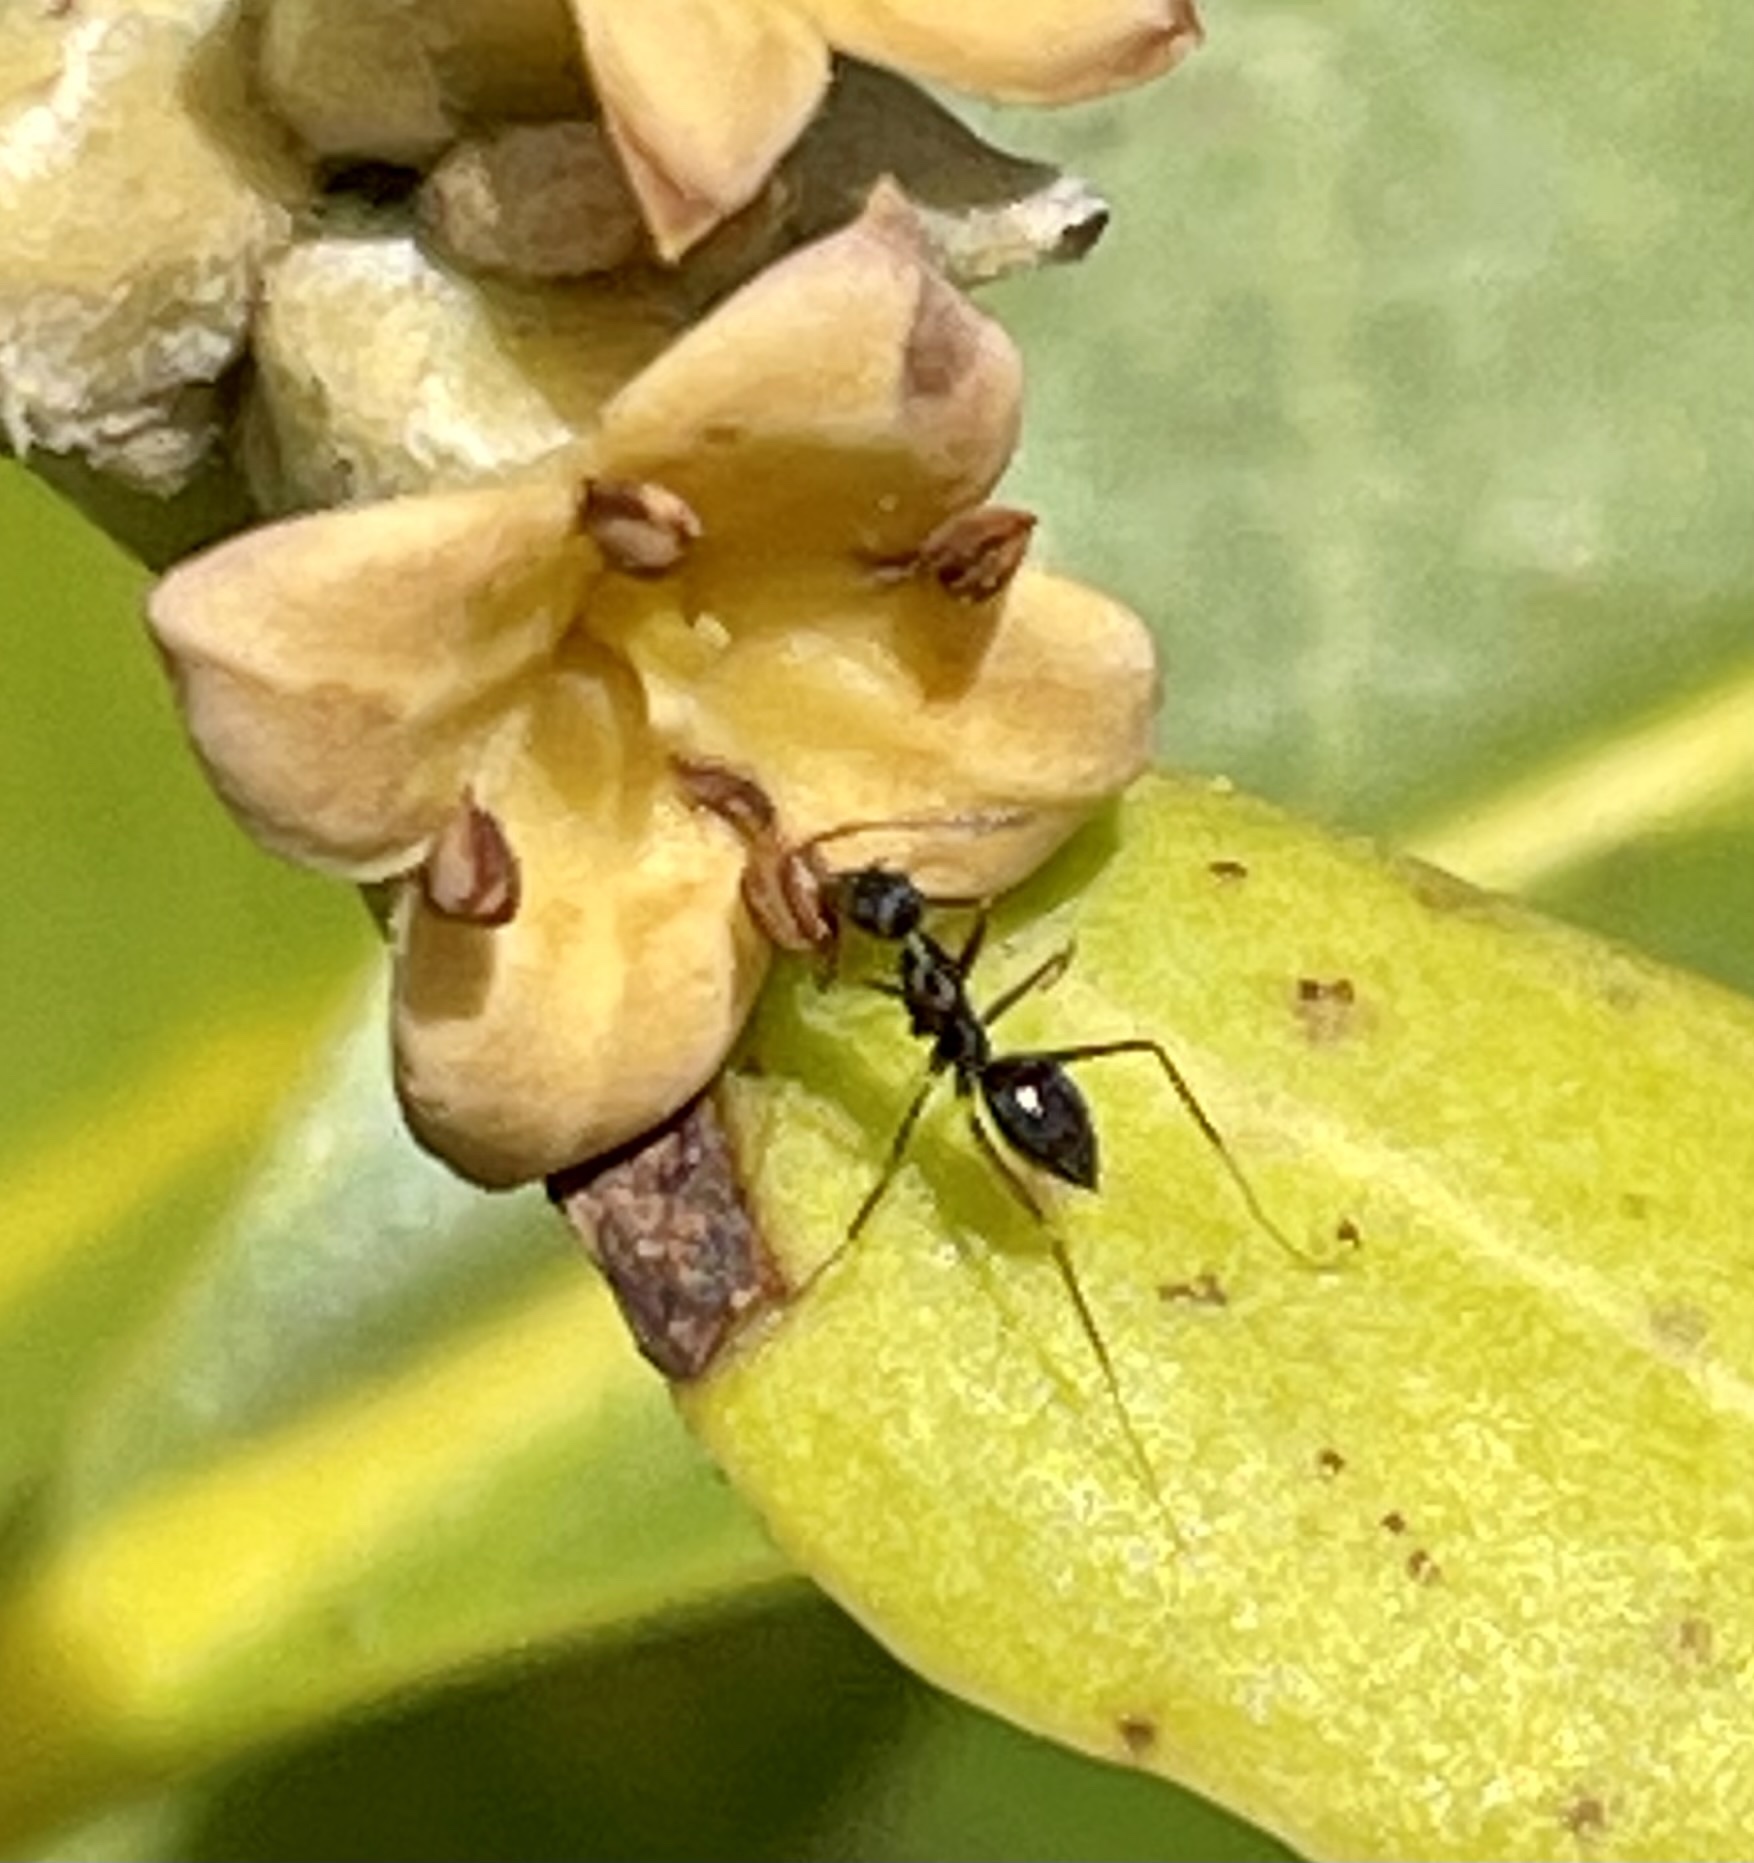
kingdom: Animalia
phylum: Arthropoda
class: Insecta
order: Hymenoptera
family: Formicidae
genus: Paratrechina
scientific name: Paratrechina longicornis
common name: Longhorned crazy ant
